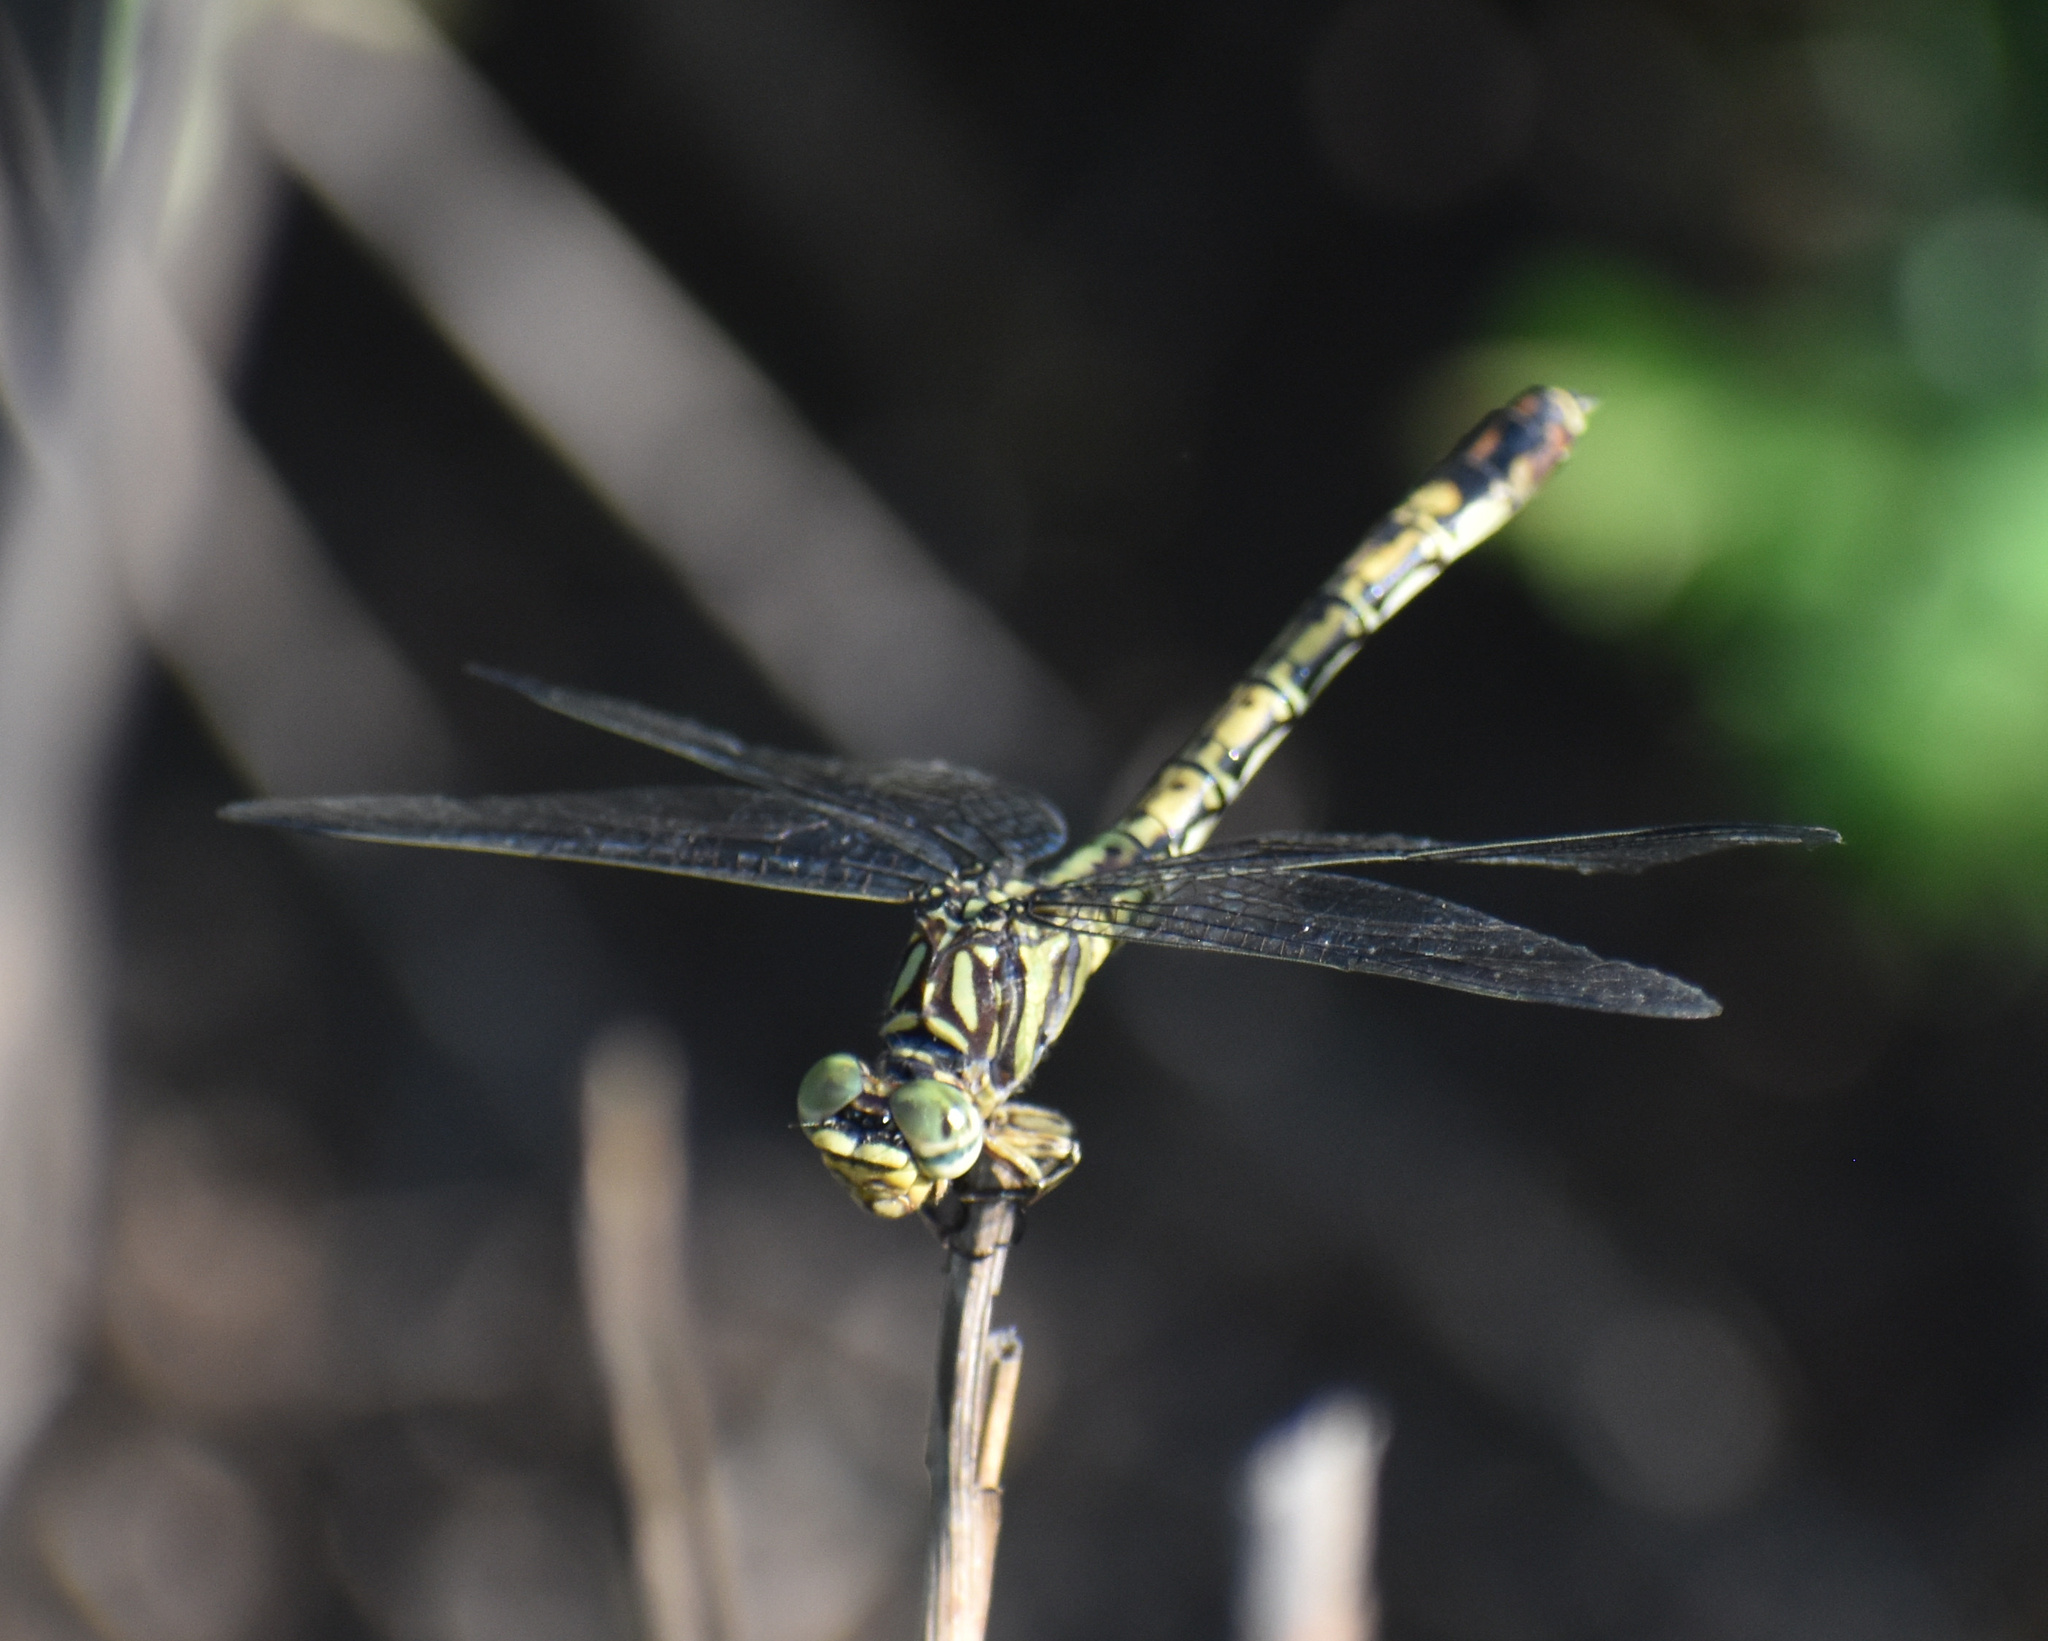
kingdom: Animalia
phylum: Arthropoda
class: Insecta
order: Odonata
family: Gomphidae
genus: Paragomphus
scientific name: Paragomphus cognatus
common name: Boulder hooktail
